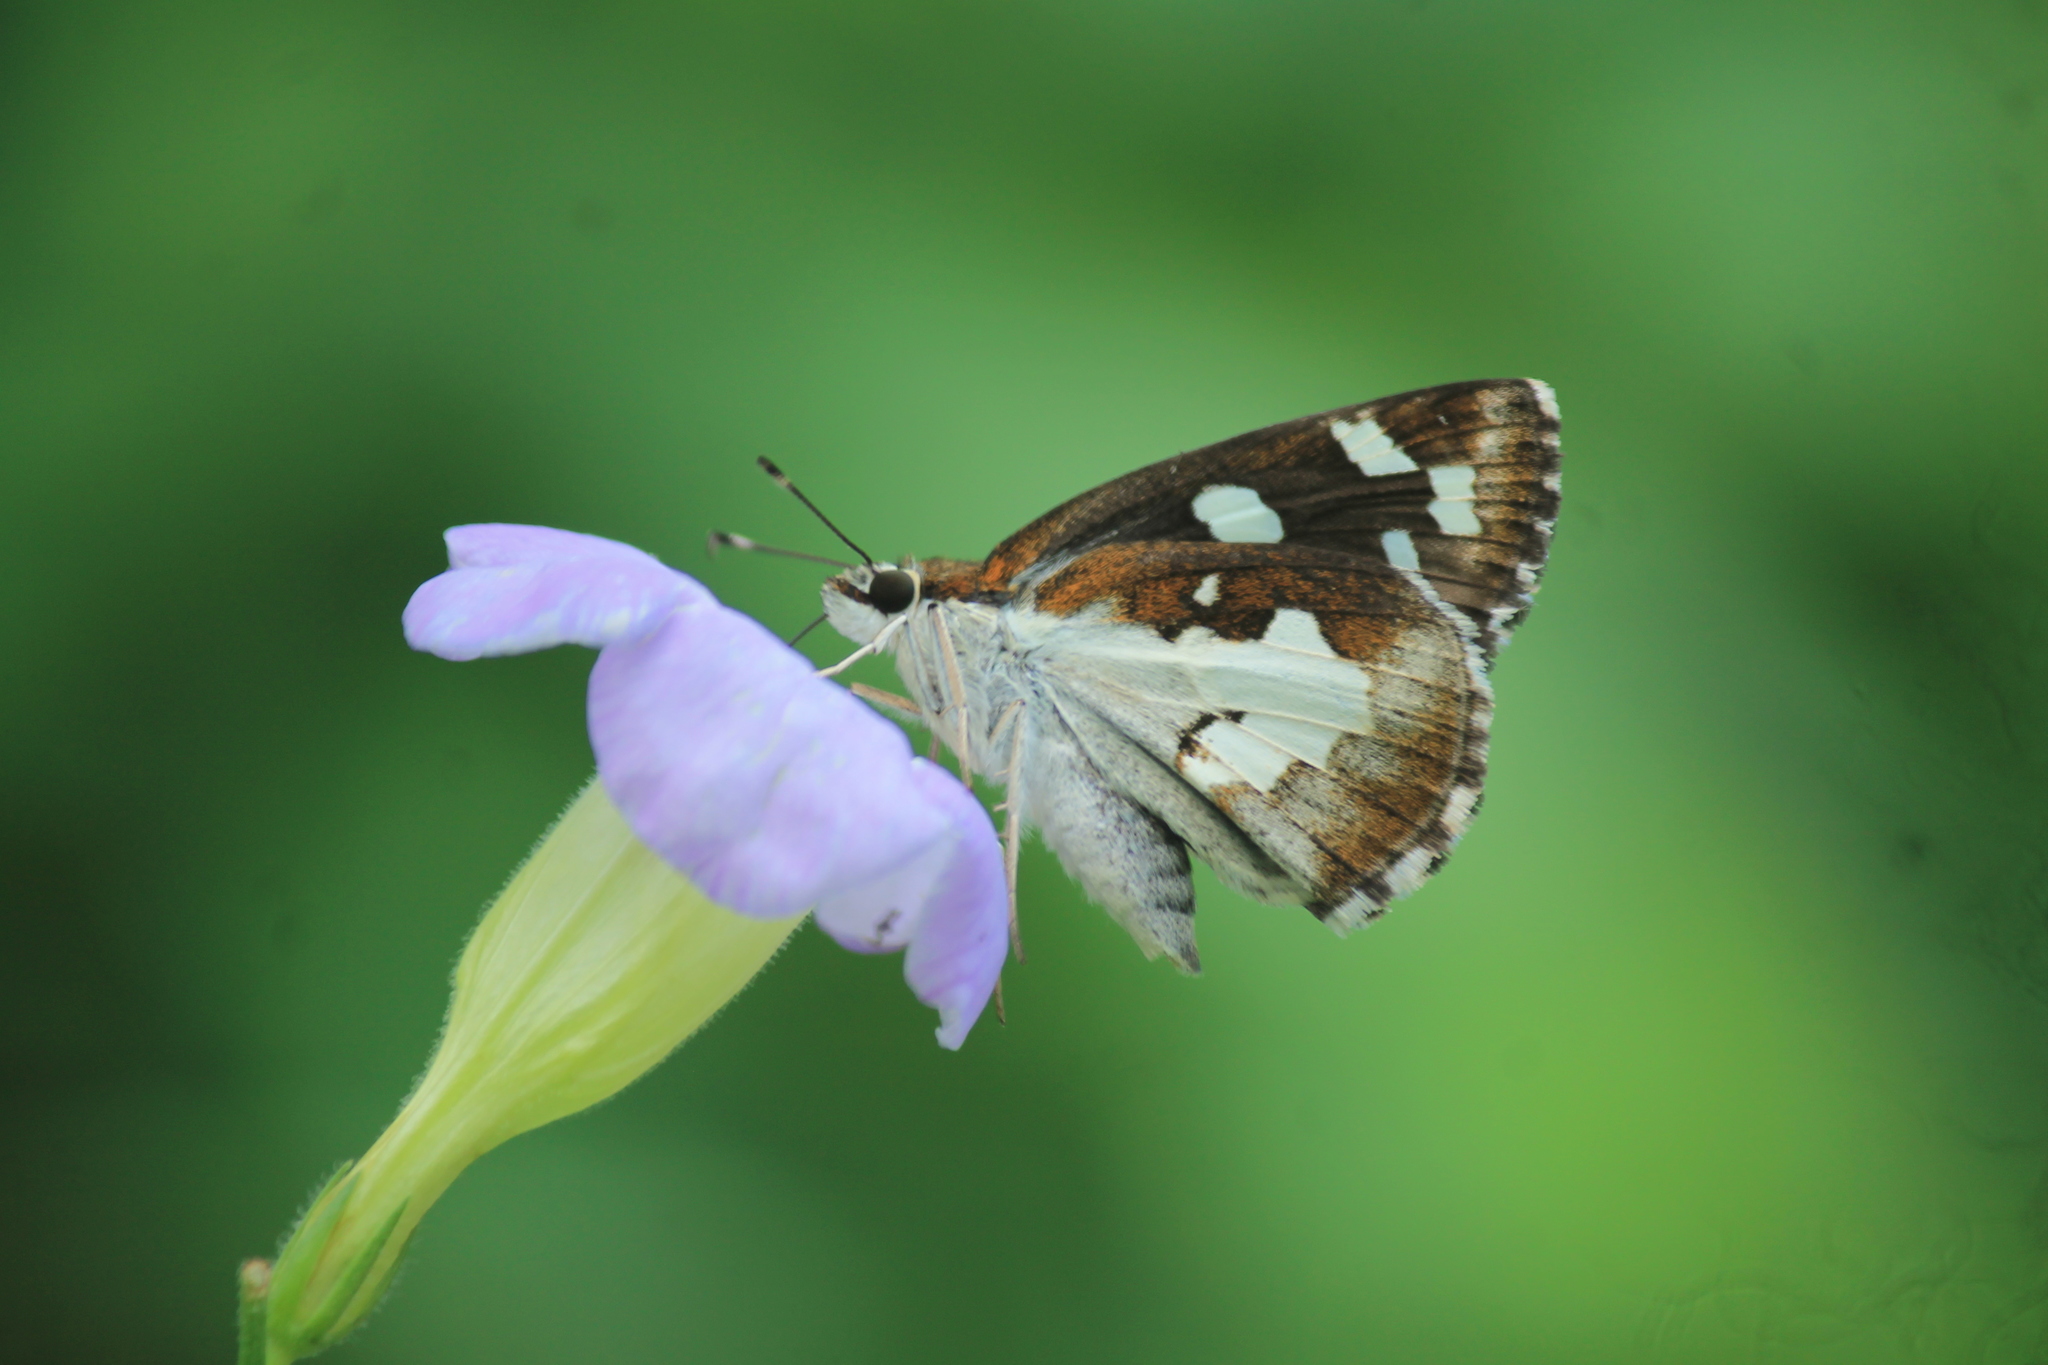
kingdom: Animalia
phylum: Arthropoda
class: Insecta
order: Lepidoptera
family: Hesperiidae
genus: Udaspes
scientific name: Udaspes folus
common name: Grass demon
